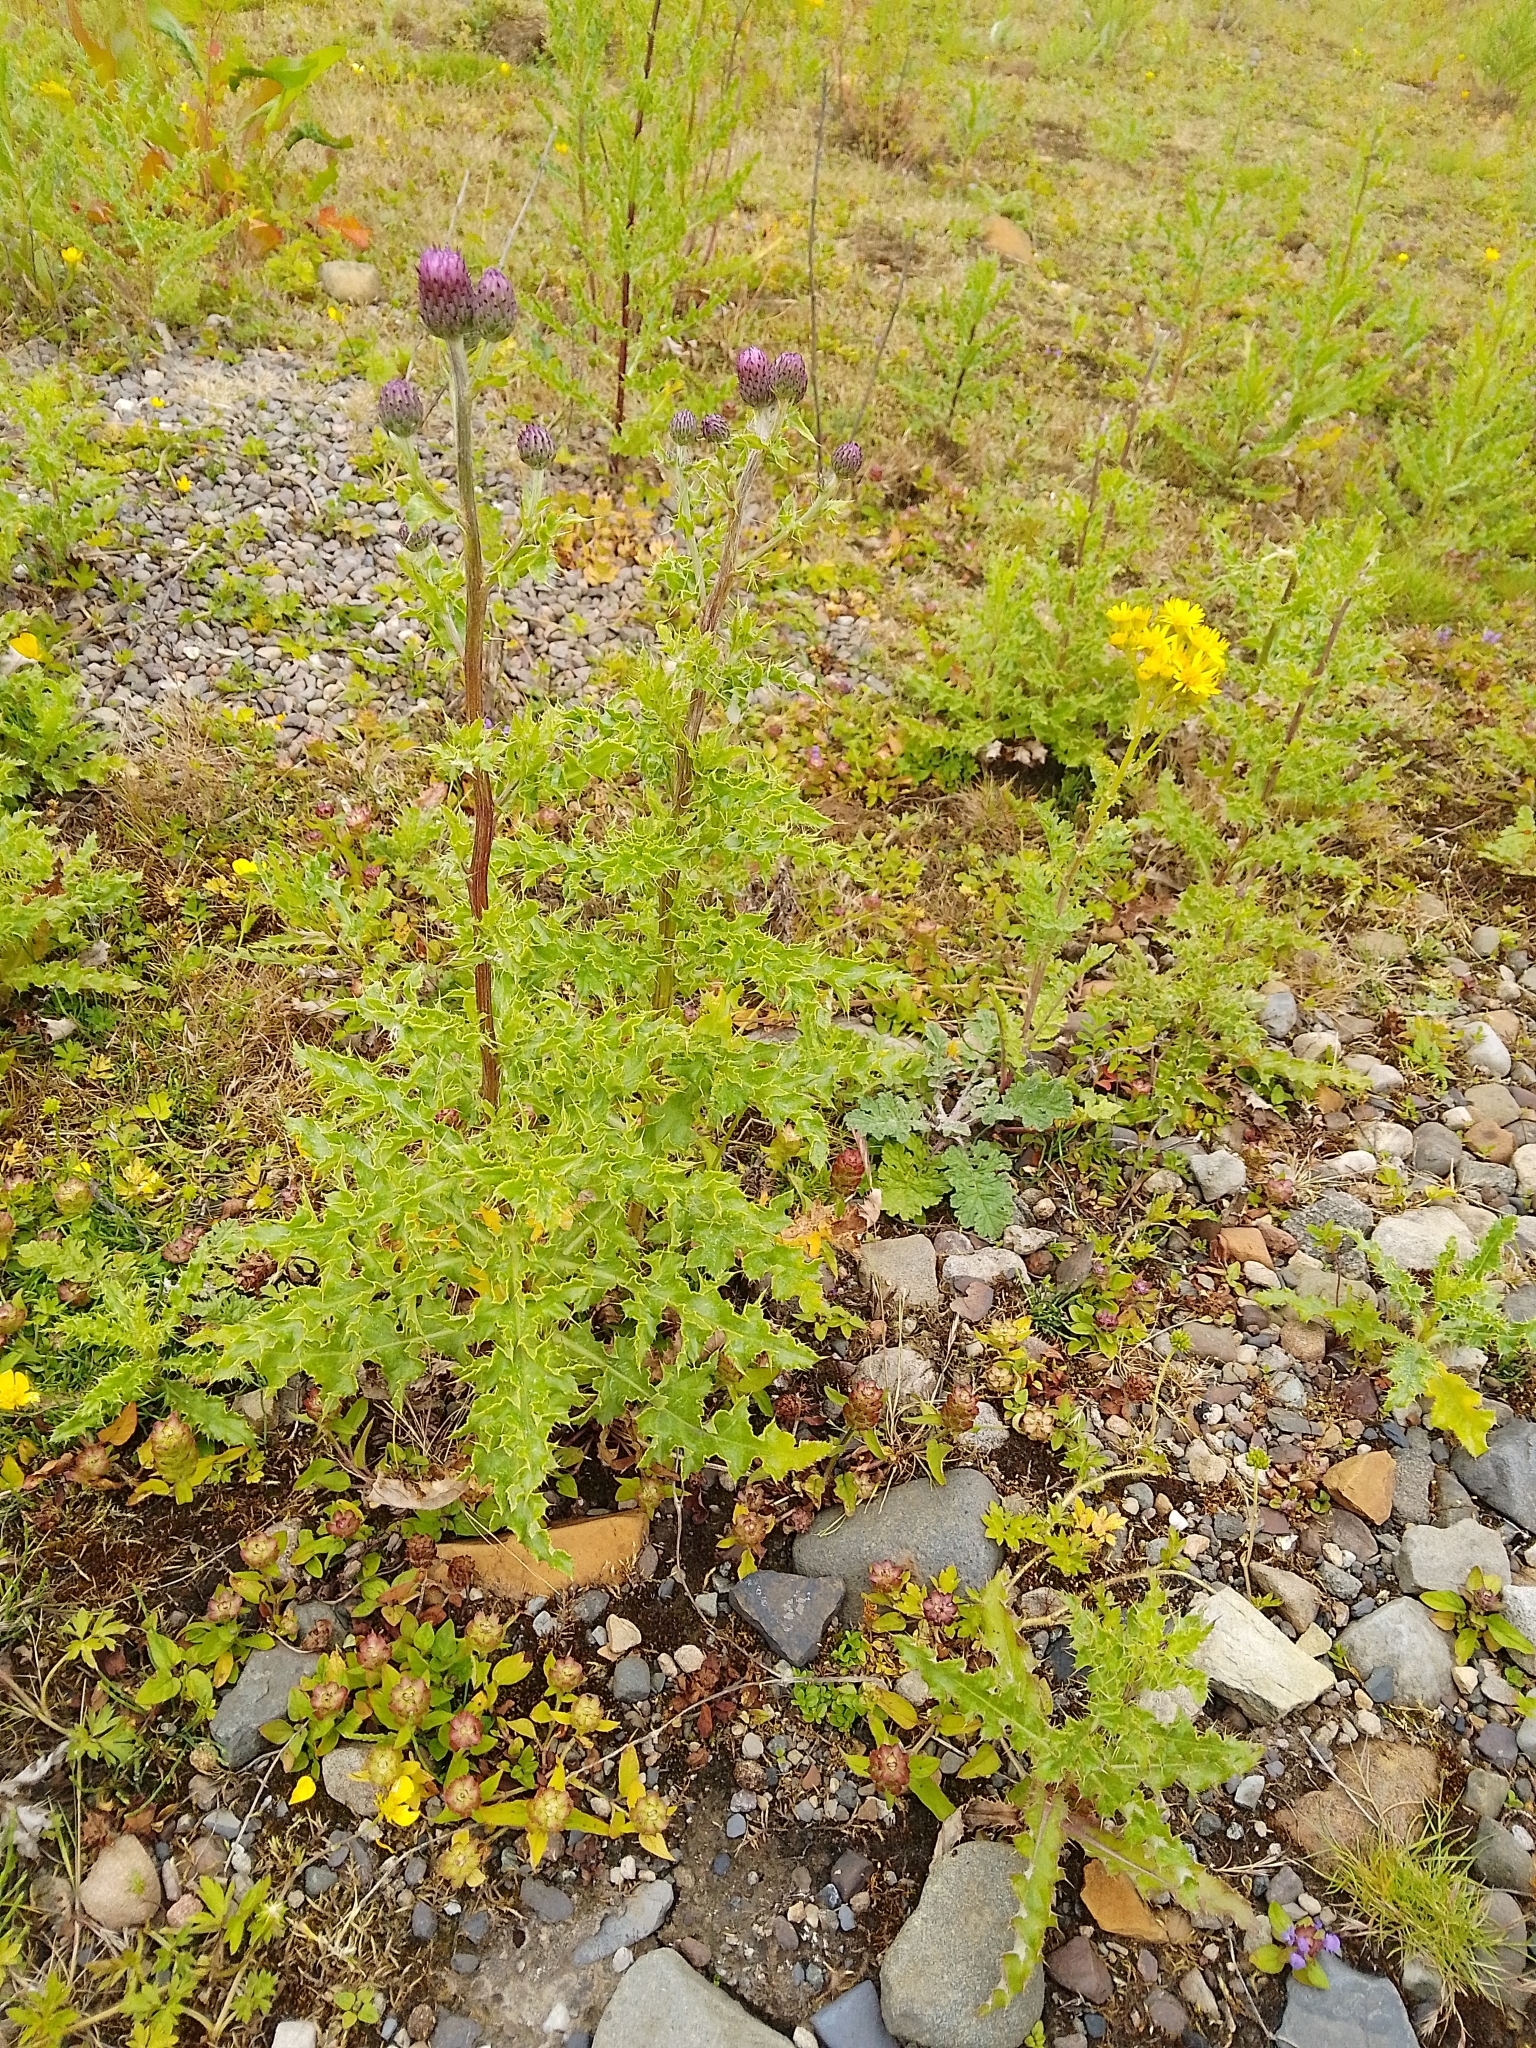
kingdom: Plantae
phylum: Tracheophyta
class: Magnoliopsida
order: Asterales
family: Asteraceae
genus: Cirsium
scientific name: Cirsium arvense
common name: Creeping thistle
